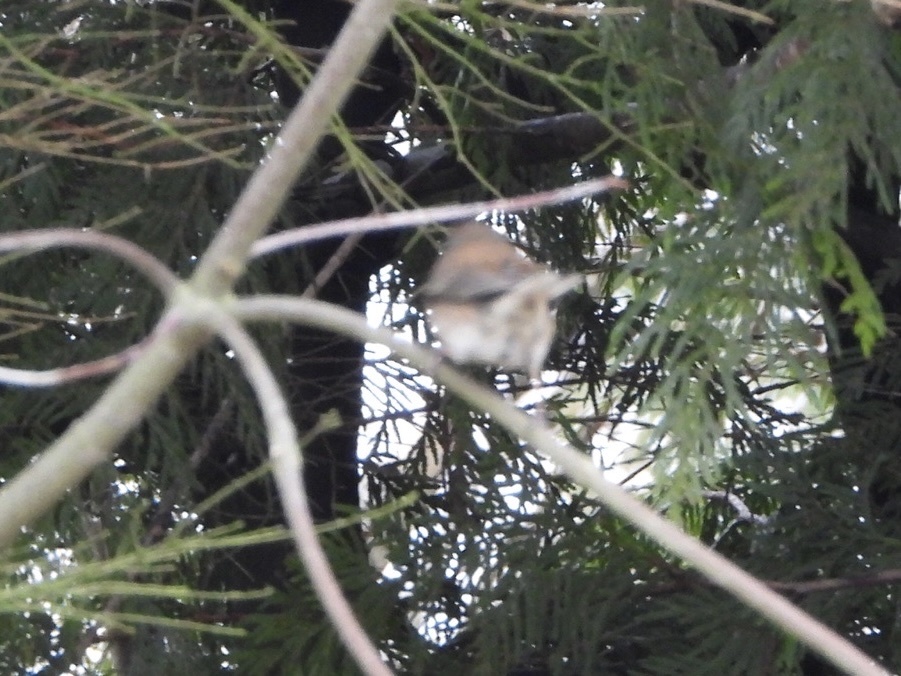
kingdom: Animalia
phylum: Chordata
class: Aves
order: Passeriformes
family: Passerellidae
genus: Junco
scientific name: Junco hyemalis
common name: Dark-eyed junco
